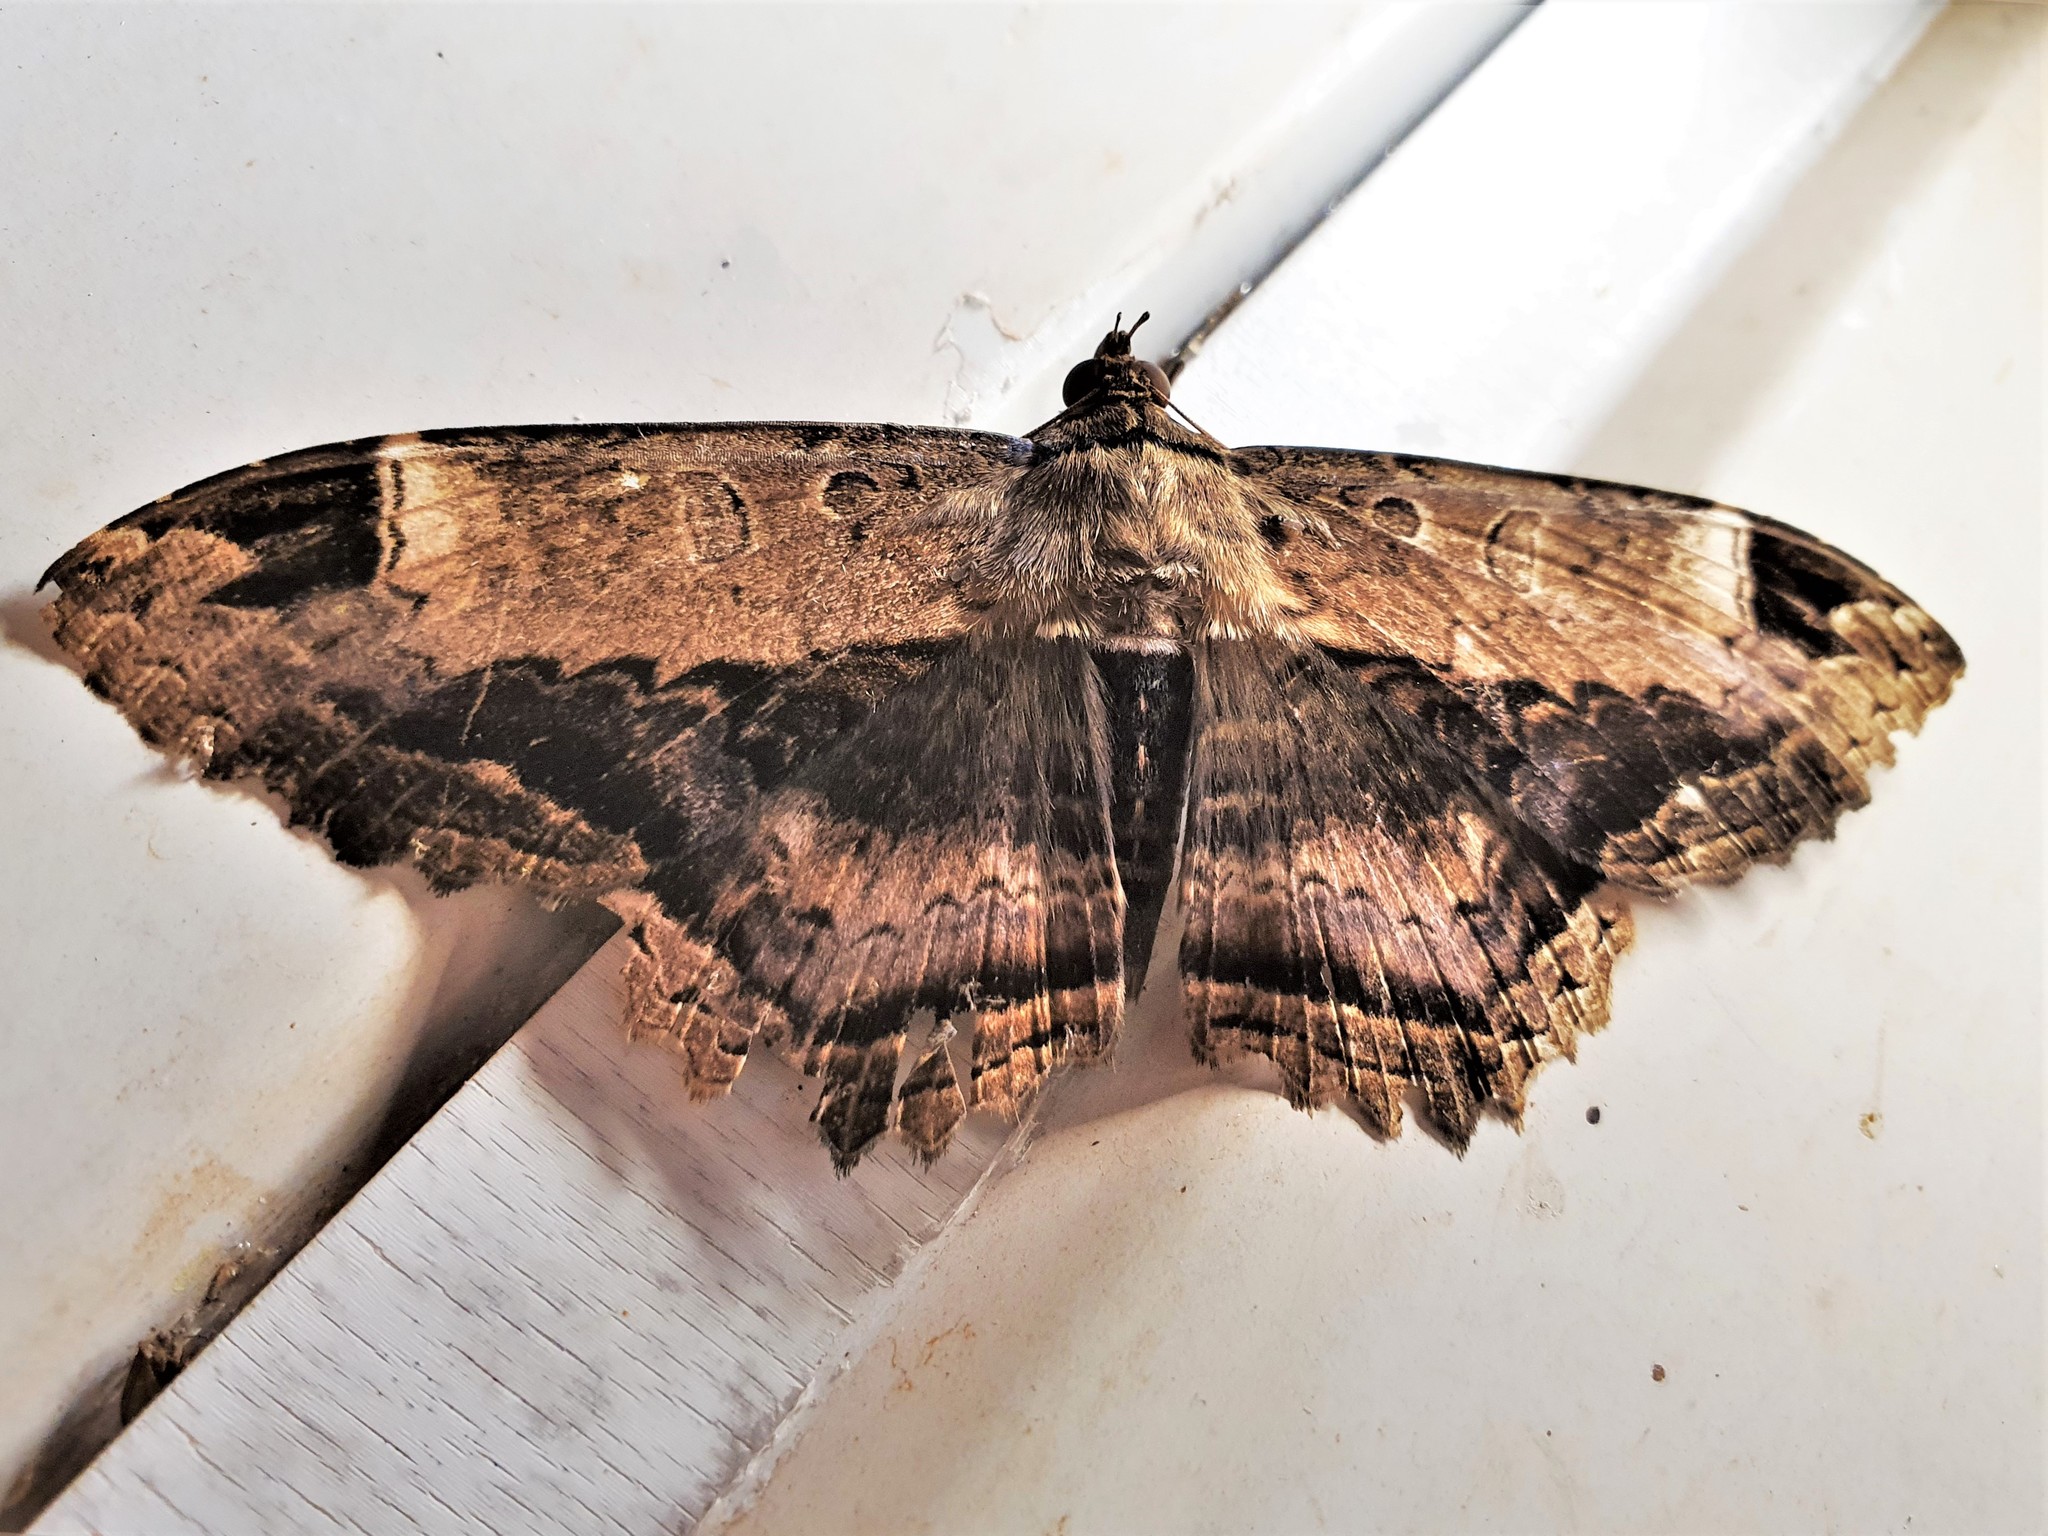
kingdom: Animalia
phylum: Arthropoda
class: Insecta
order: Lepidoptera
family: Noctuidae
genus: Ronania
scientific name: Ronania
